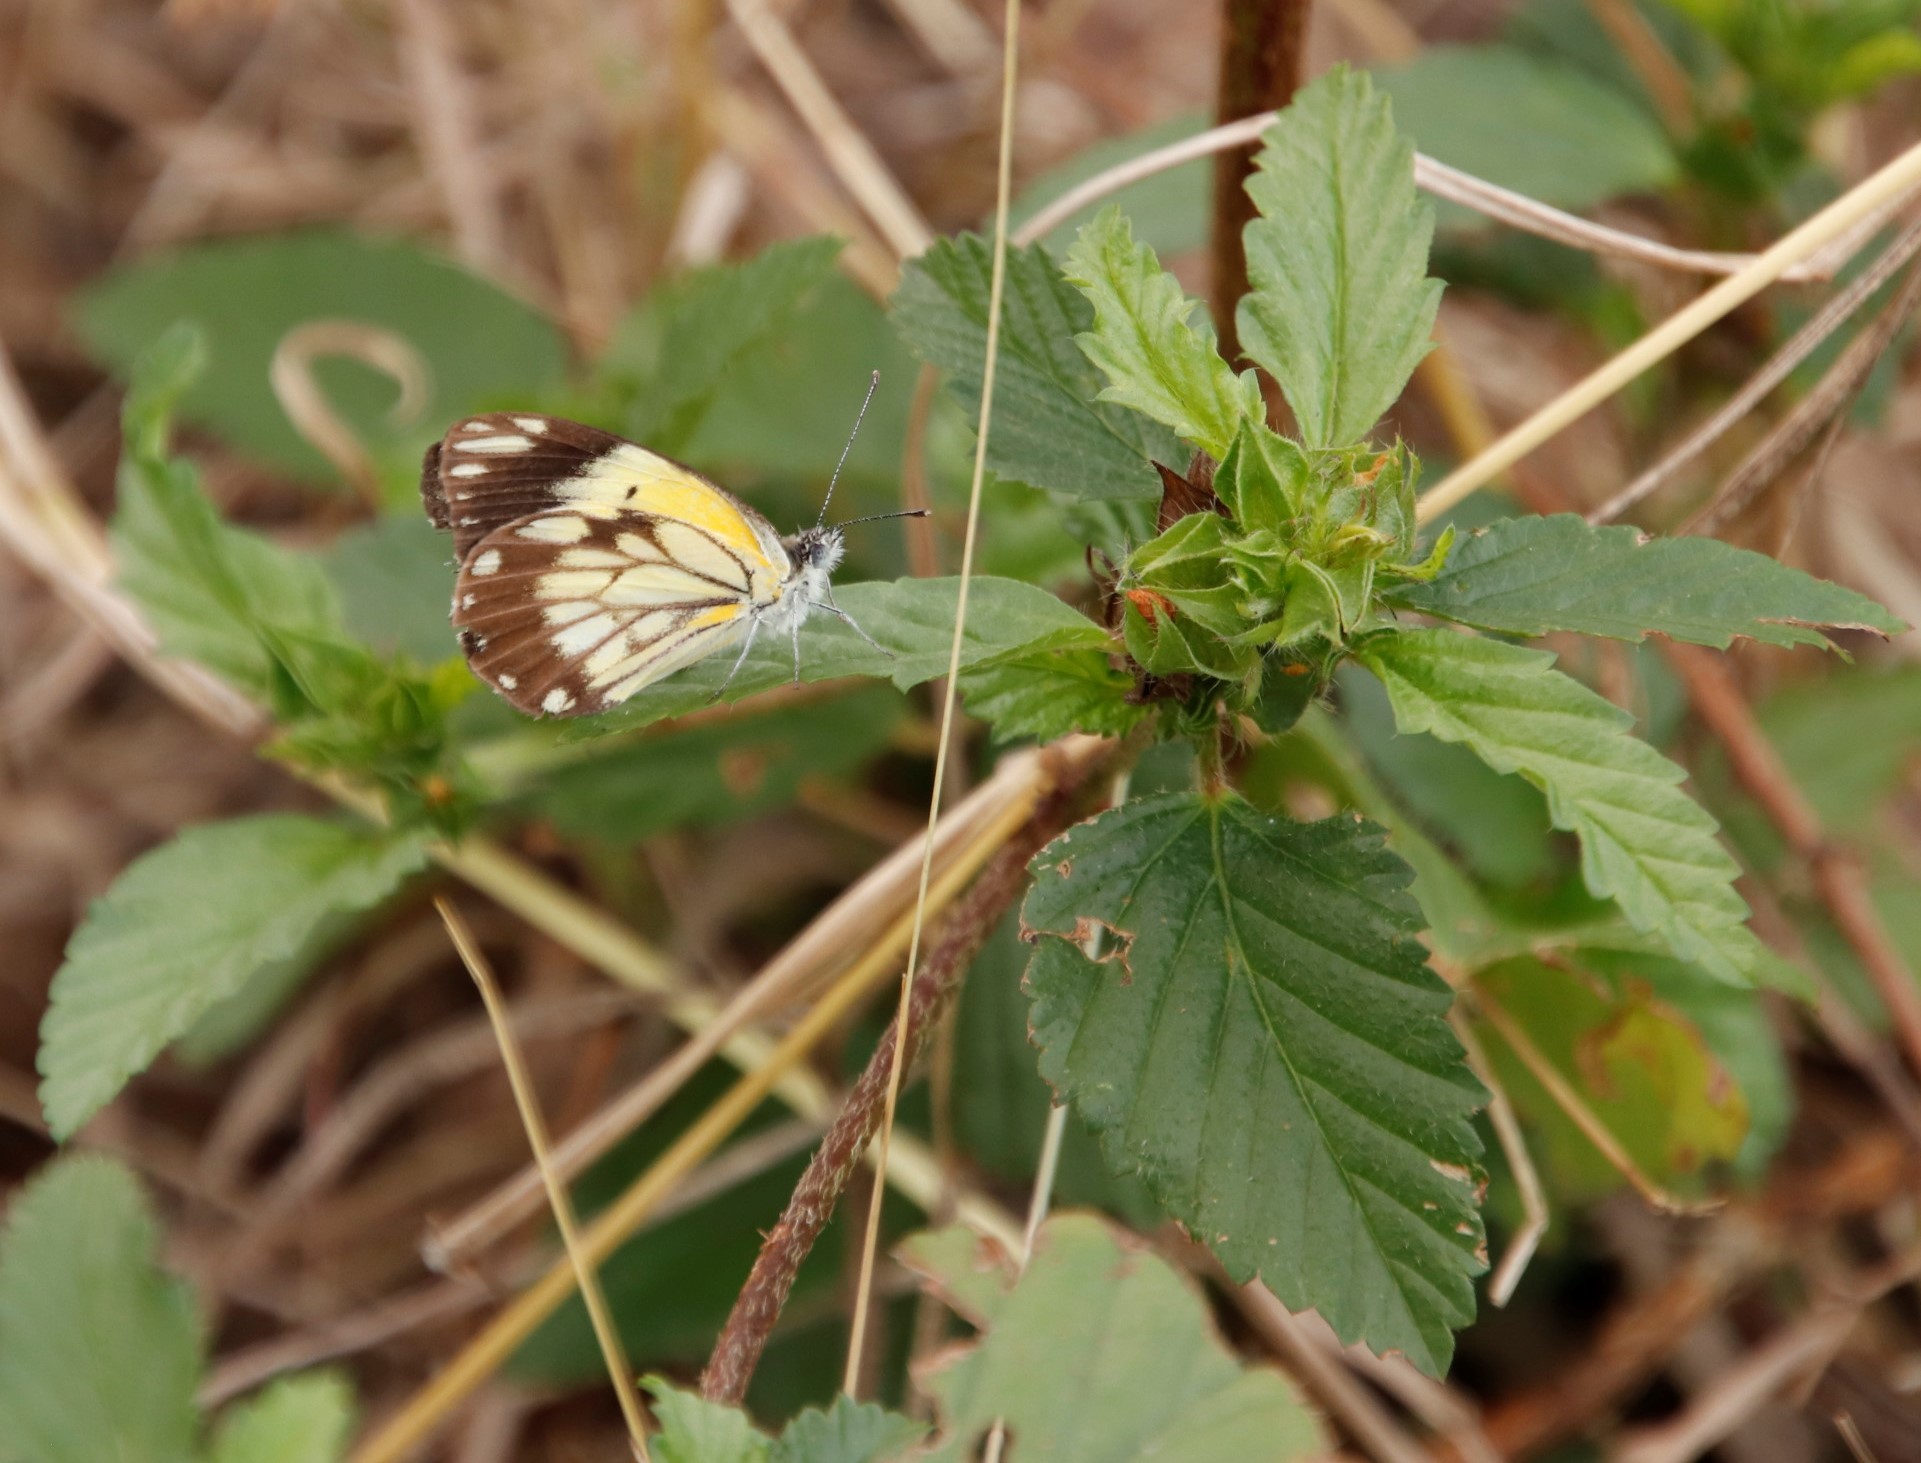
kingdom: Animalia
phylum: Arthropoda
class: Insecta
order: Lepidoptera
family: Pieridae
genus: Belenois
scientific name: Belenois creona
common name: African caper white
